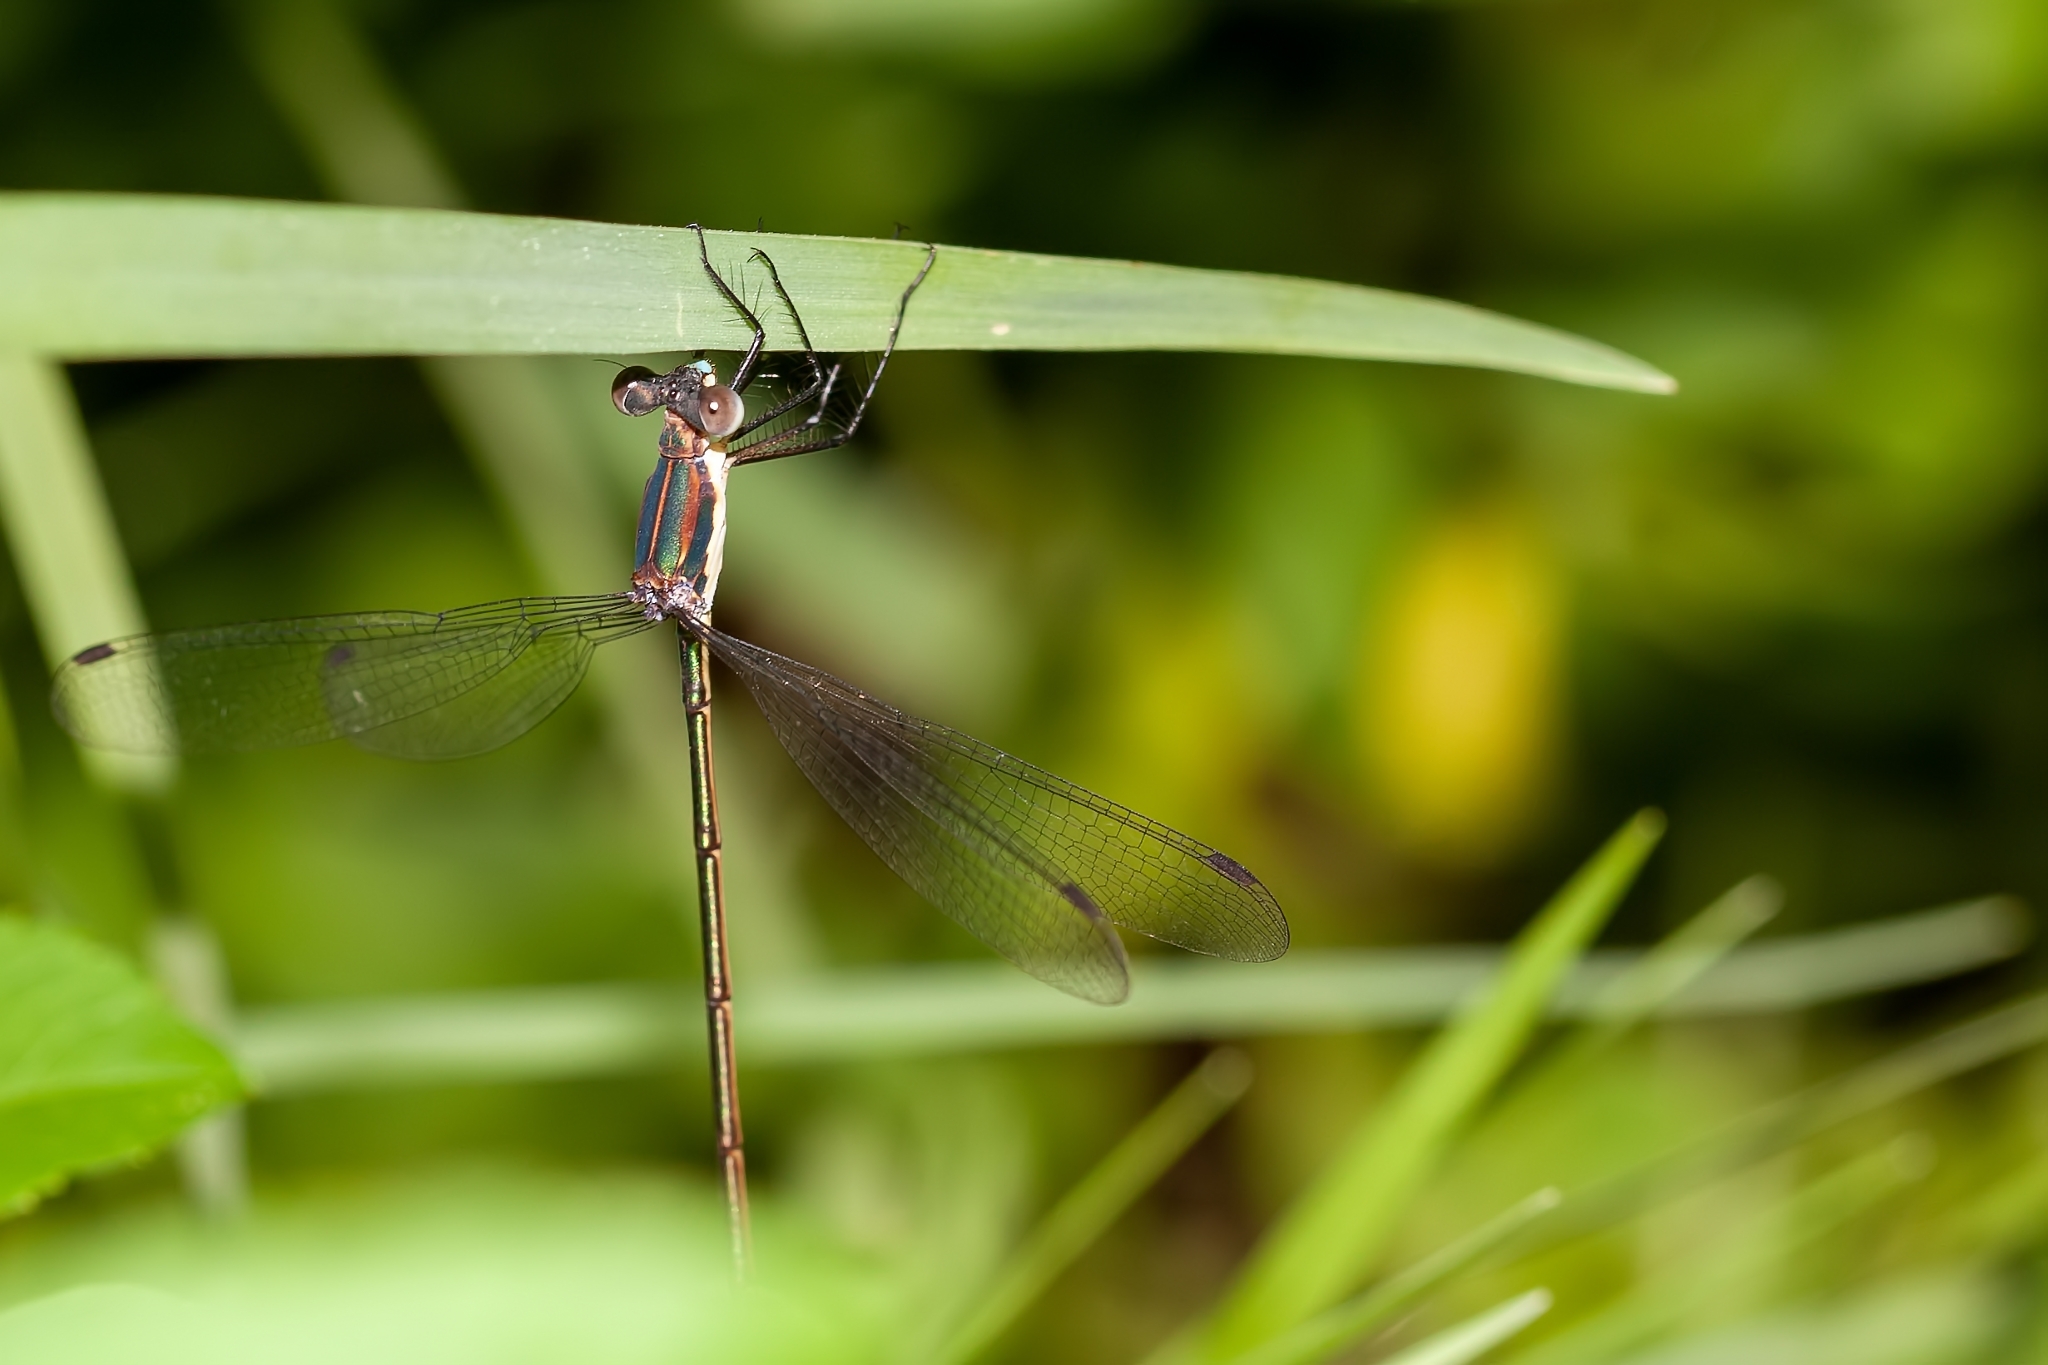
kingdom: Animalia
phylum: Arthropoda
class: Insecta
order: Odonata
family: Lestidae
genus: Lestes
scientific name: Lestes vigilax
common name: Swamp spreadwing
